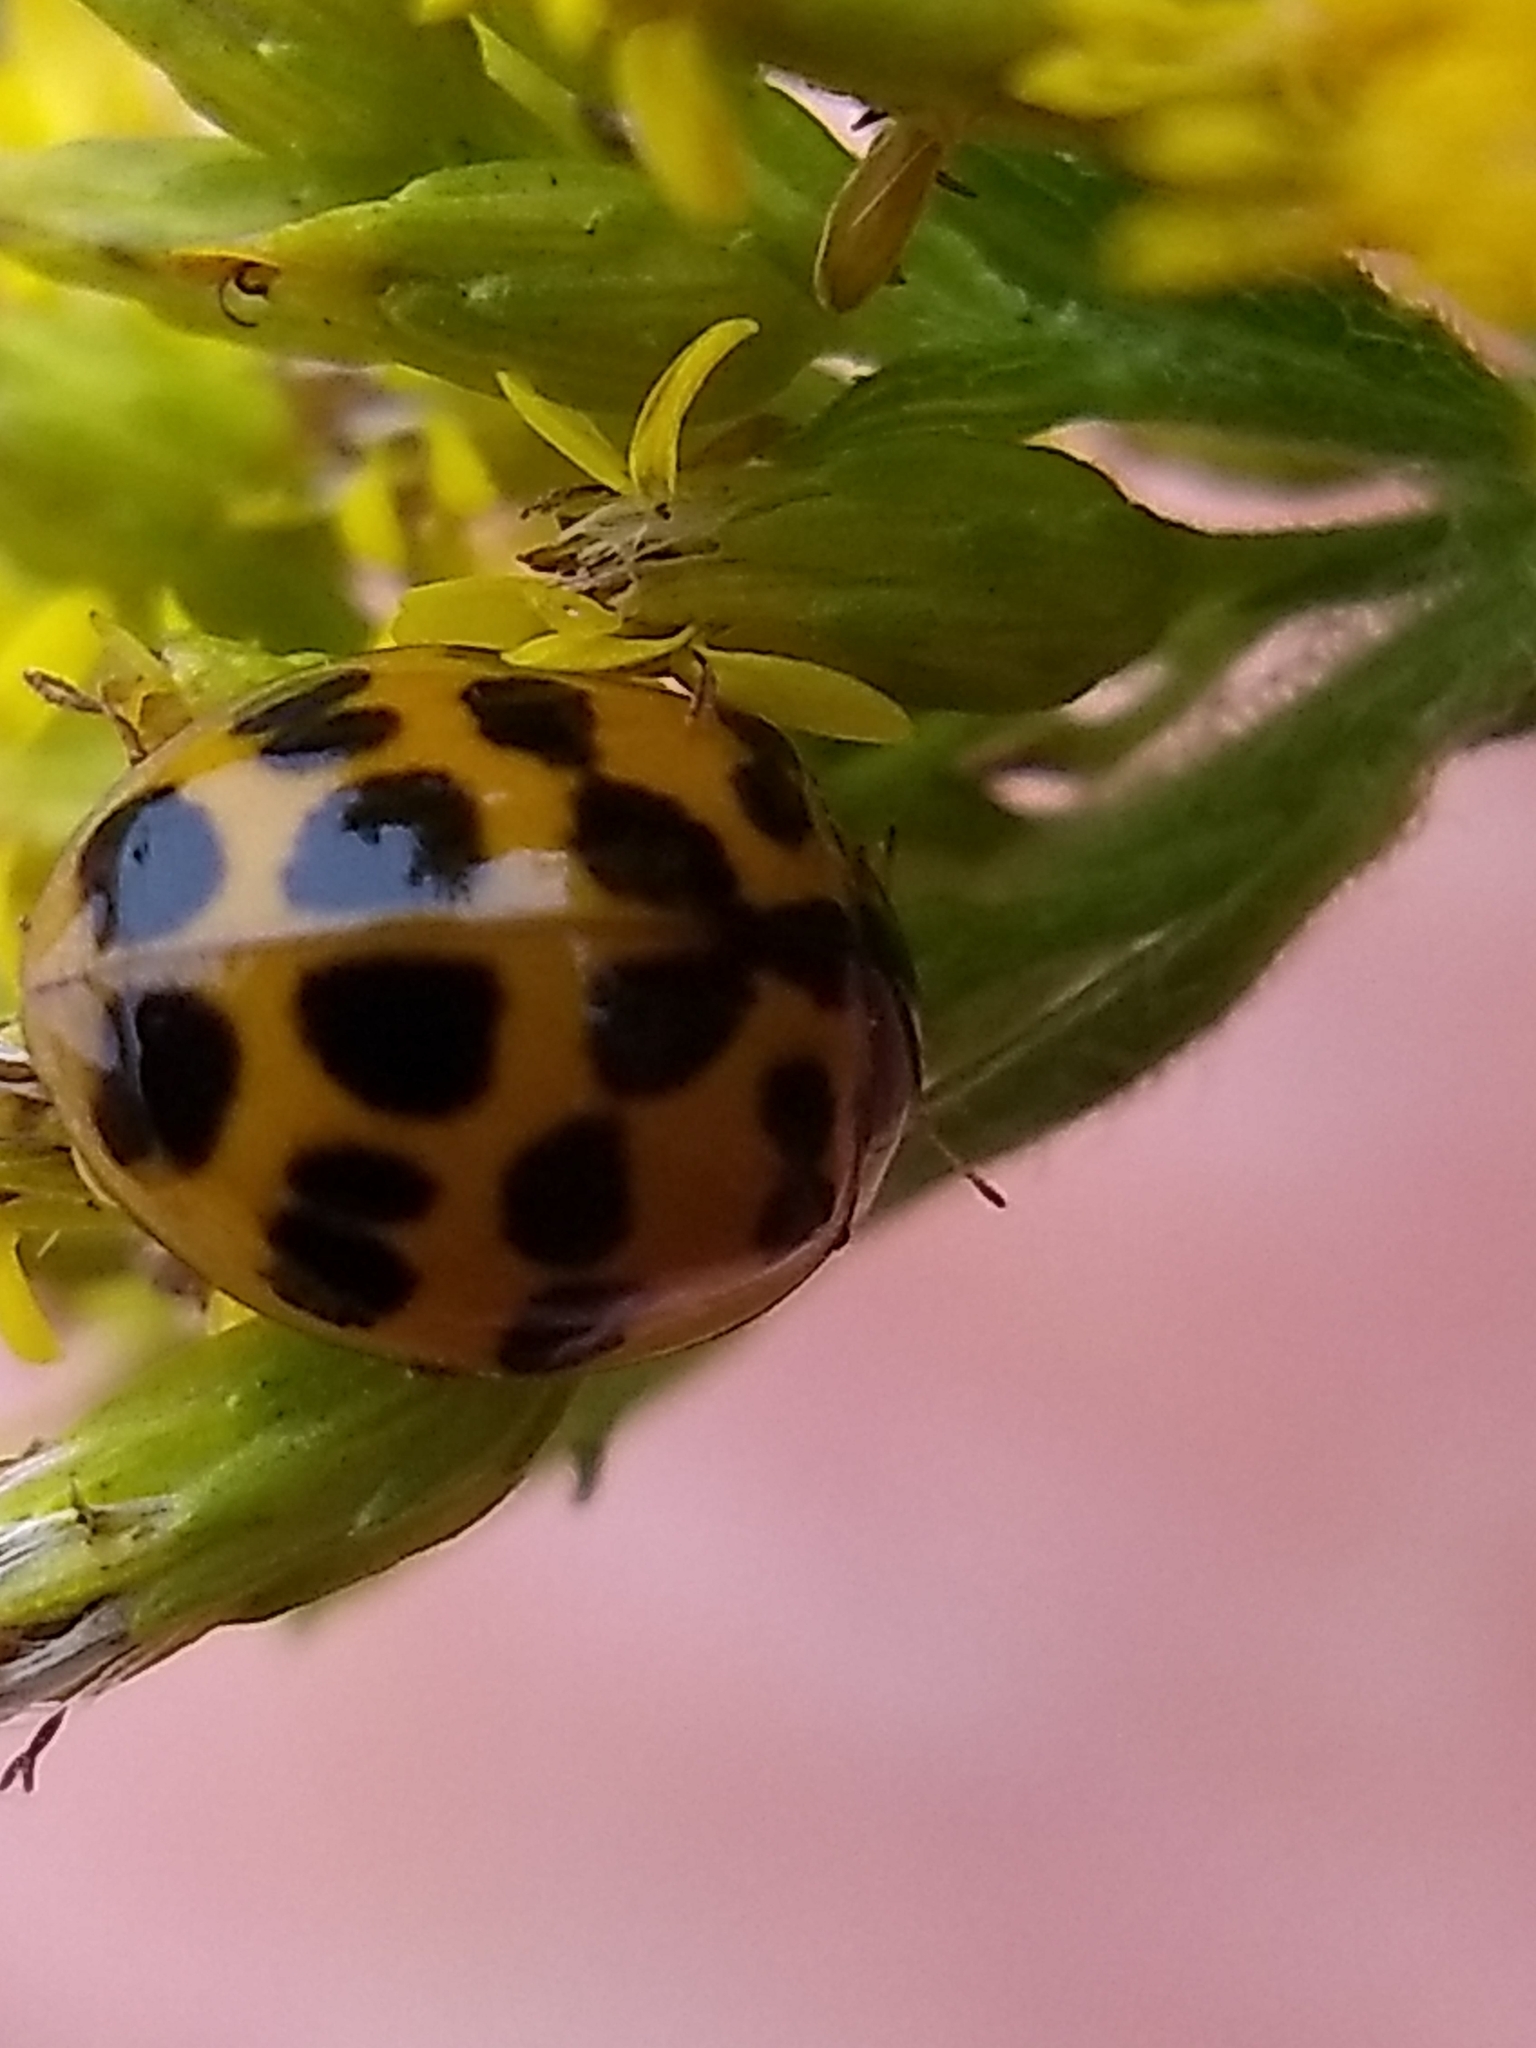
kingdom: Animalia
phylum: Arthropoda
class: Insecta
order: Coleoptera
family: Coccinellidae
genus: Harmonia
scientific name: Harmonia axyridis
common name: Harlequin ladybird
